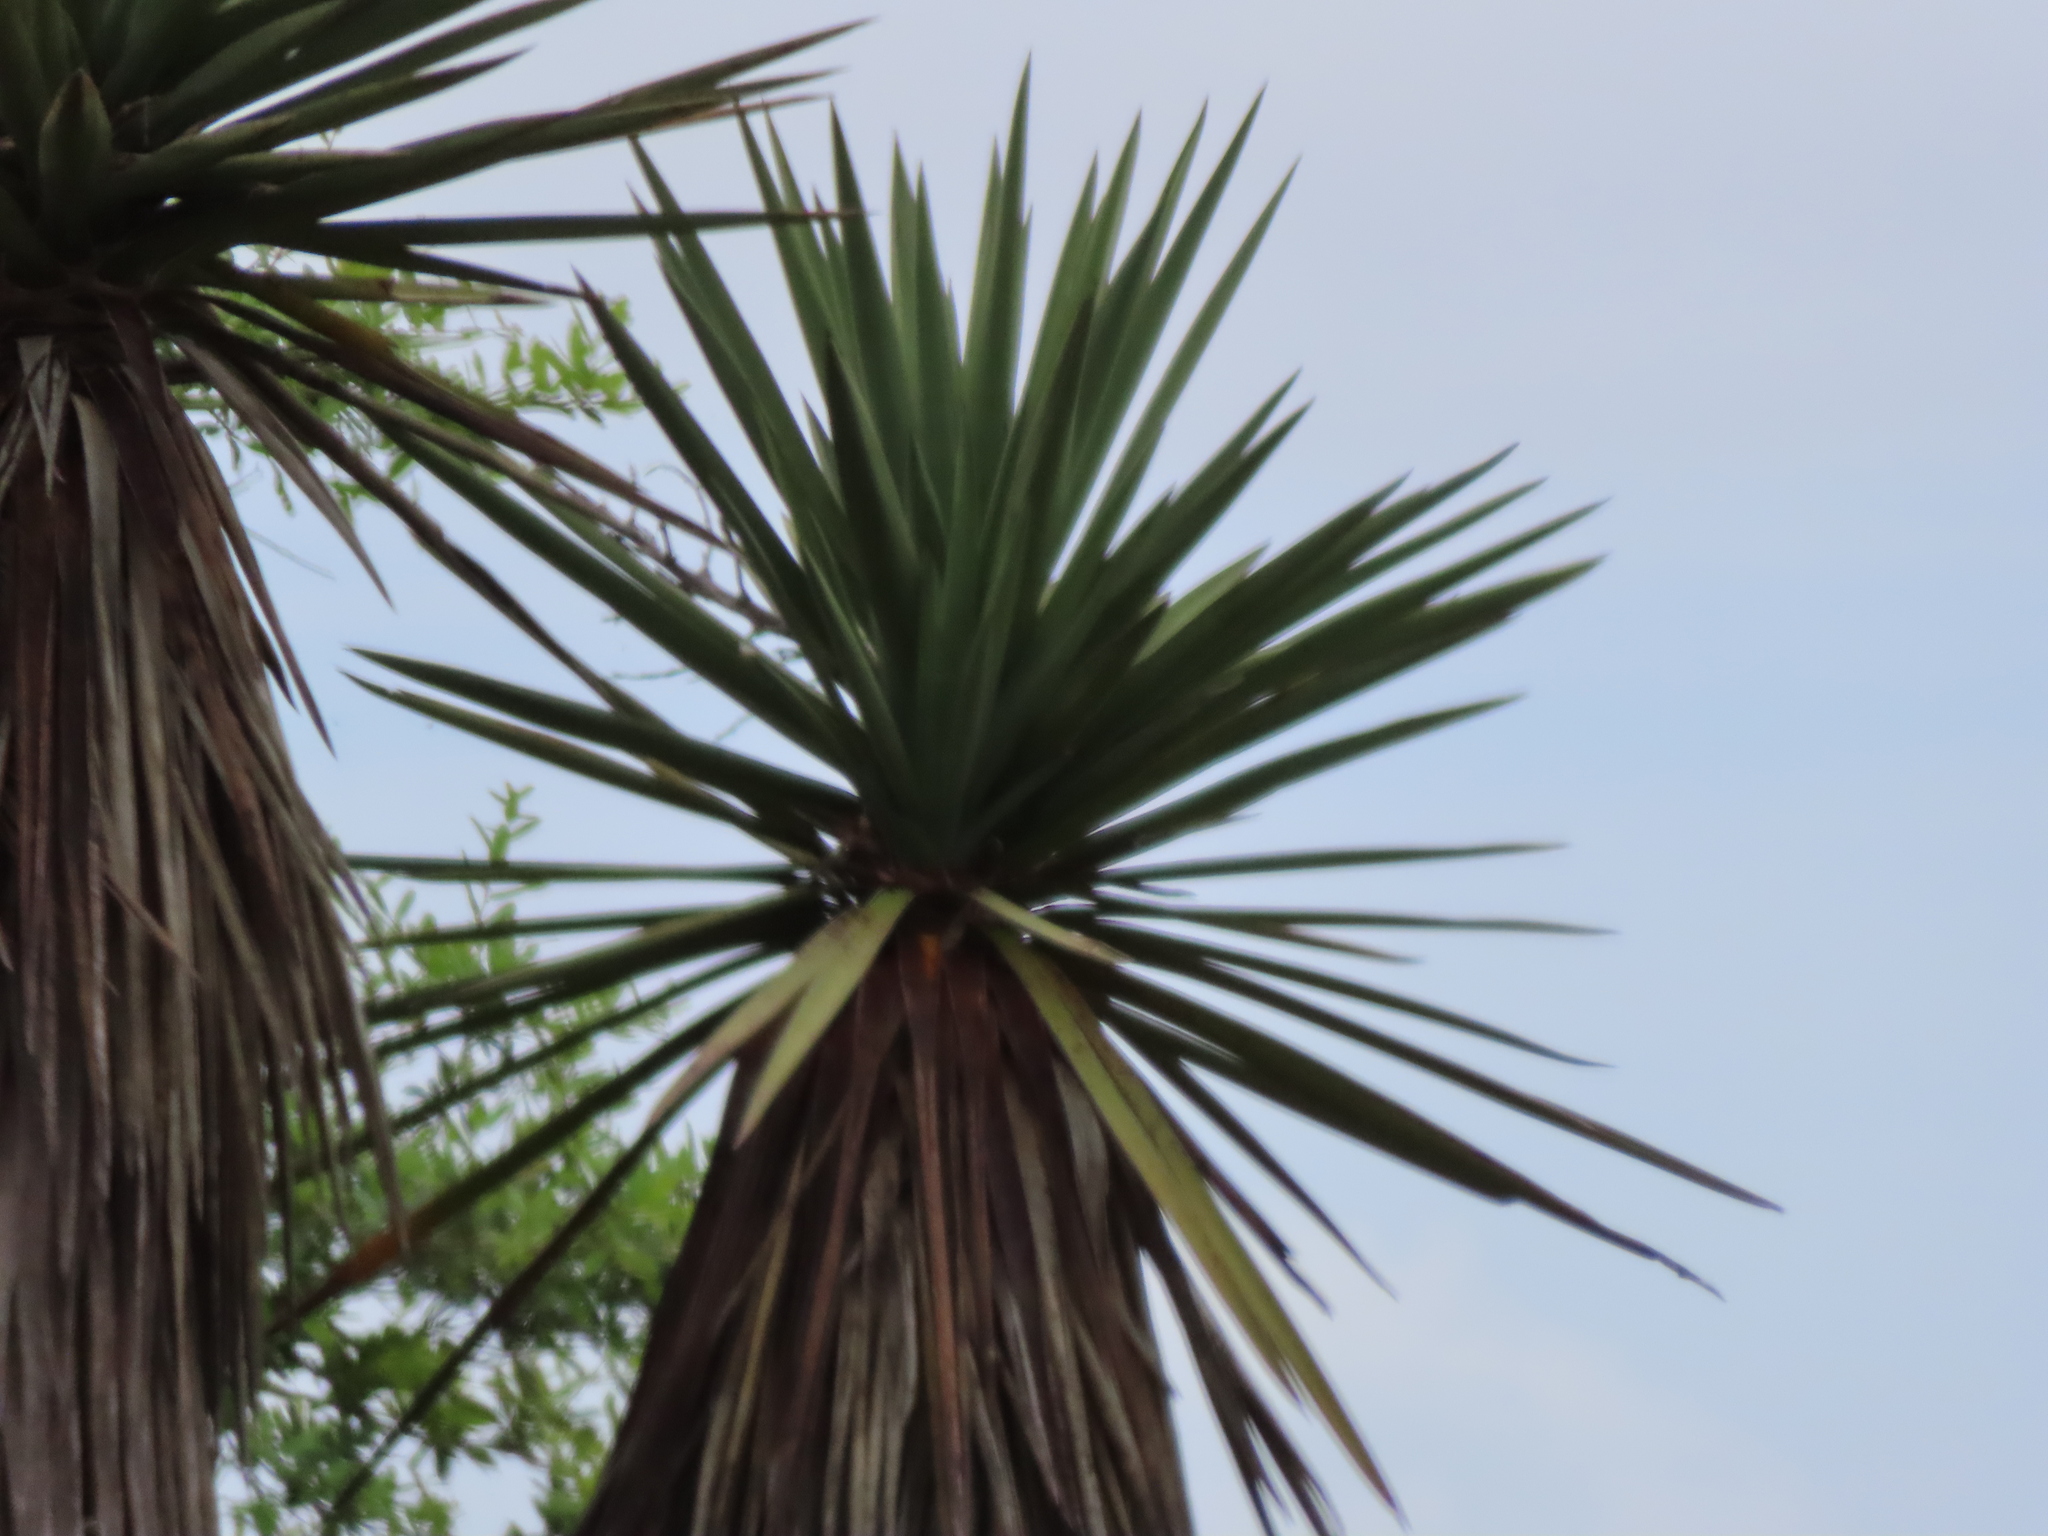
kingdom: Plantae
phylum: Tracheophyta
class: Liliopsida
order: Asparagales
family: Asparagaceae
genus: Yucca
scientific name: Yucca treculiana
